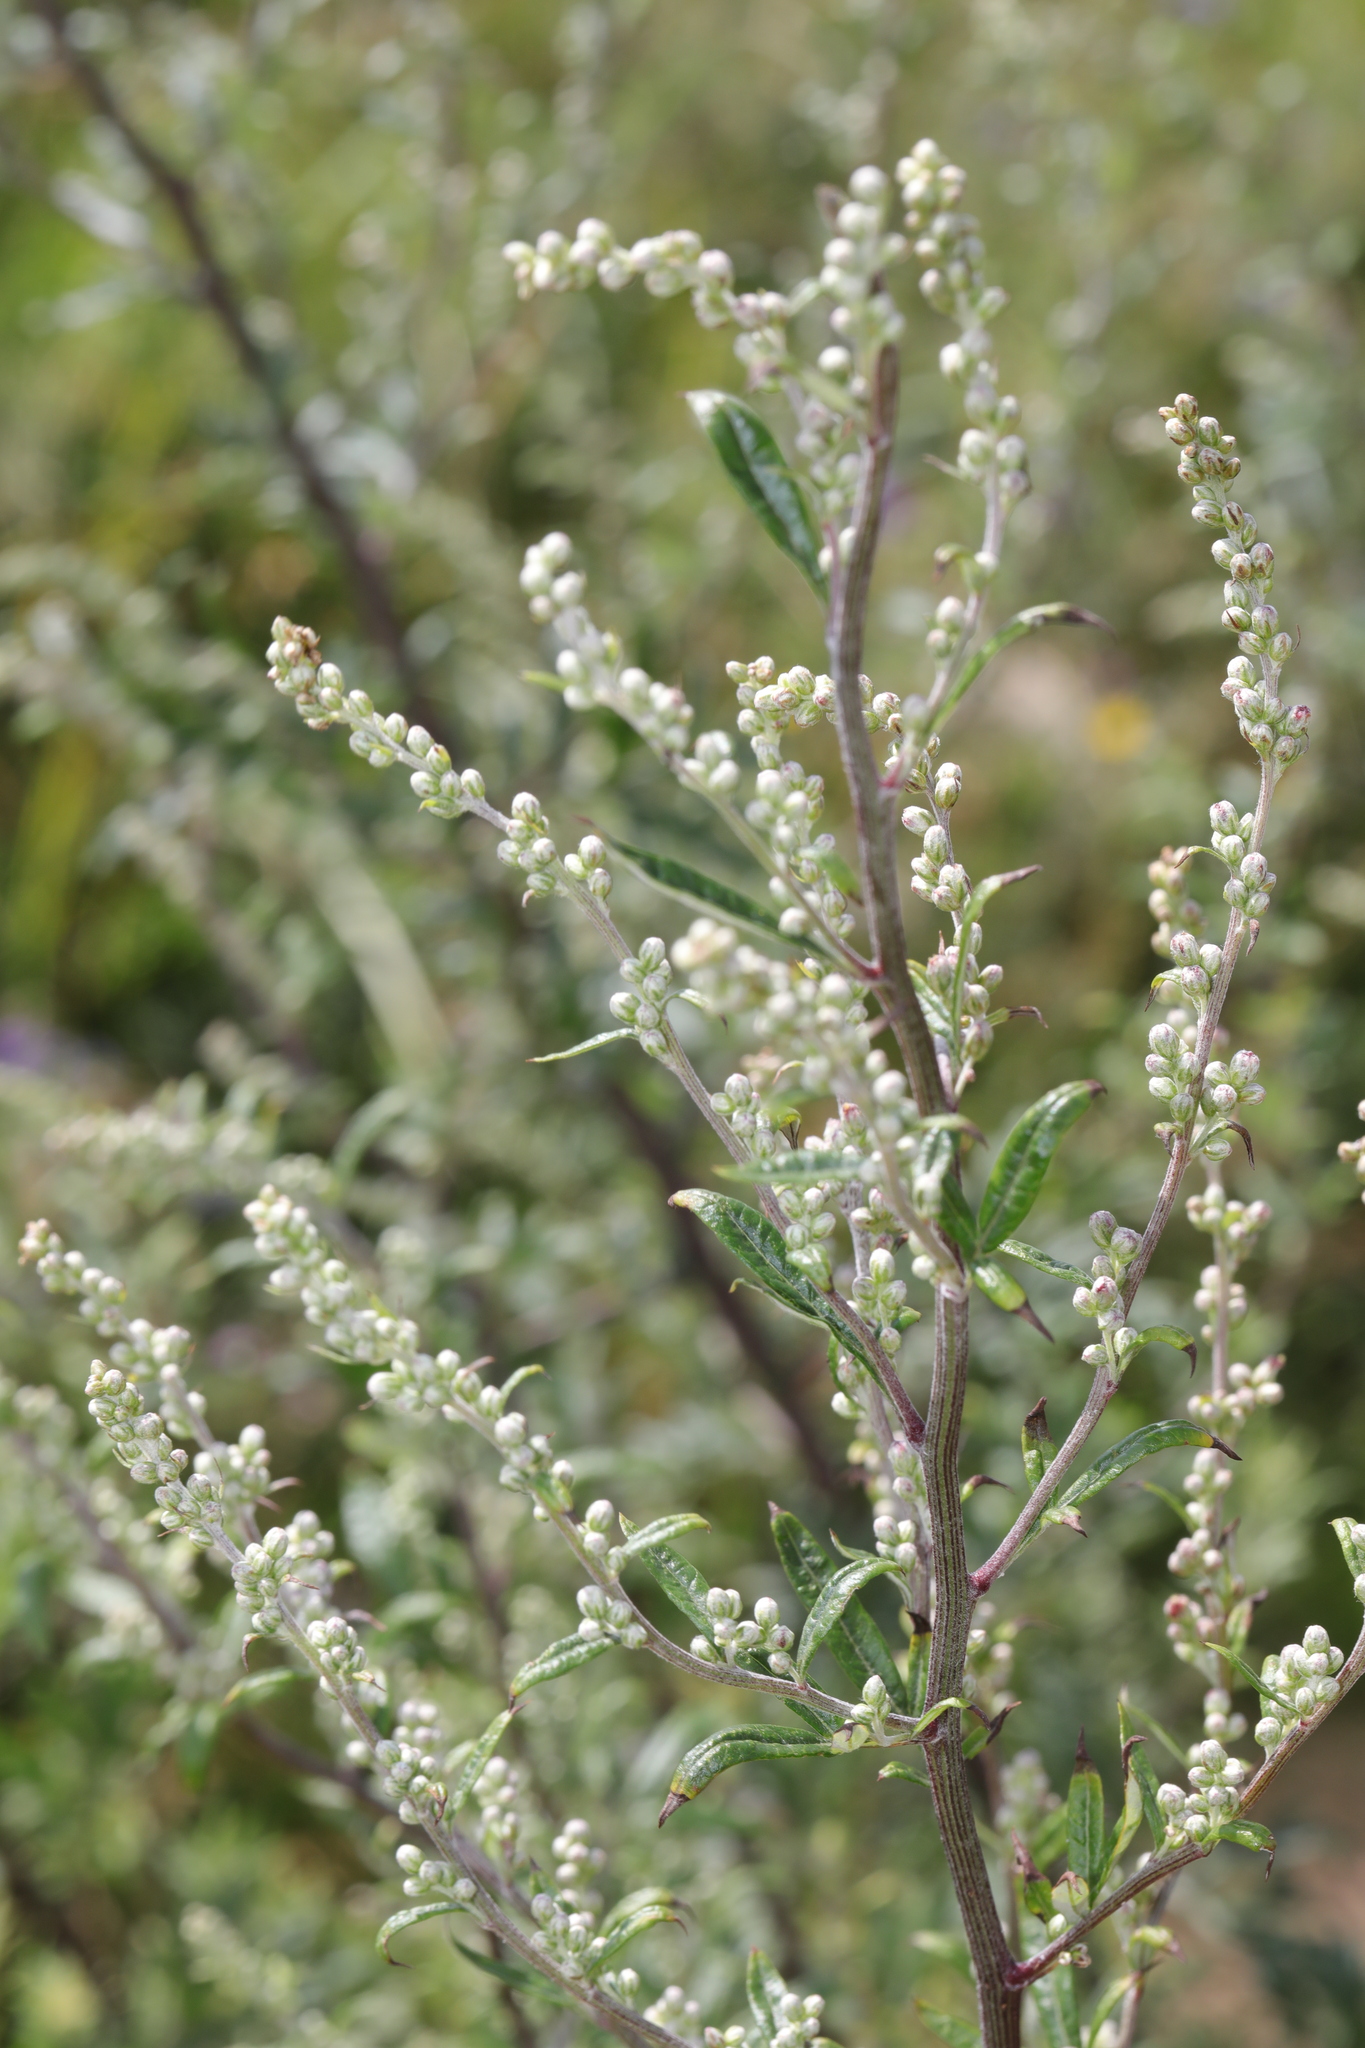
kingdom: Plantae
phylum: Tracheophyta
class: Magnoliopsida
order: Asterales
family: Asteraceae
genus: Artemisia
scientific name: Artemisia vulgaris
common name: Mugwort
